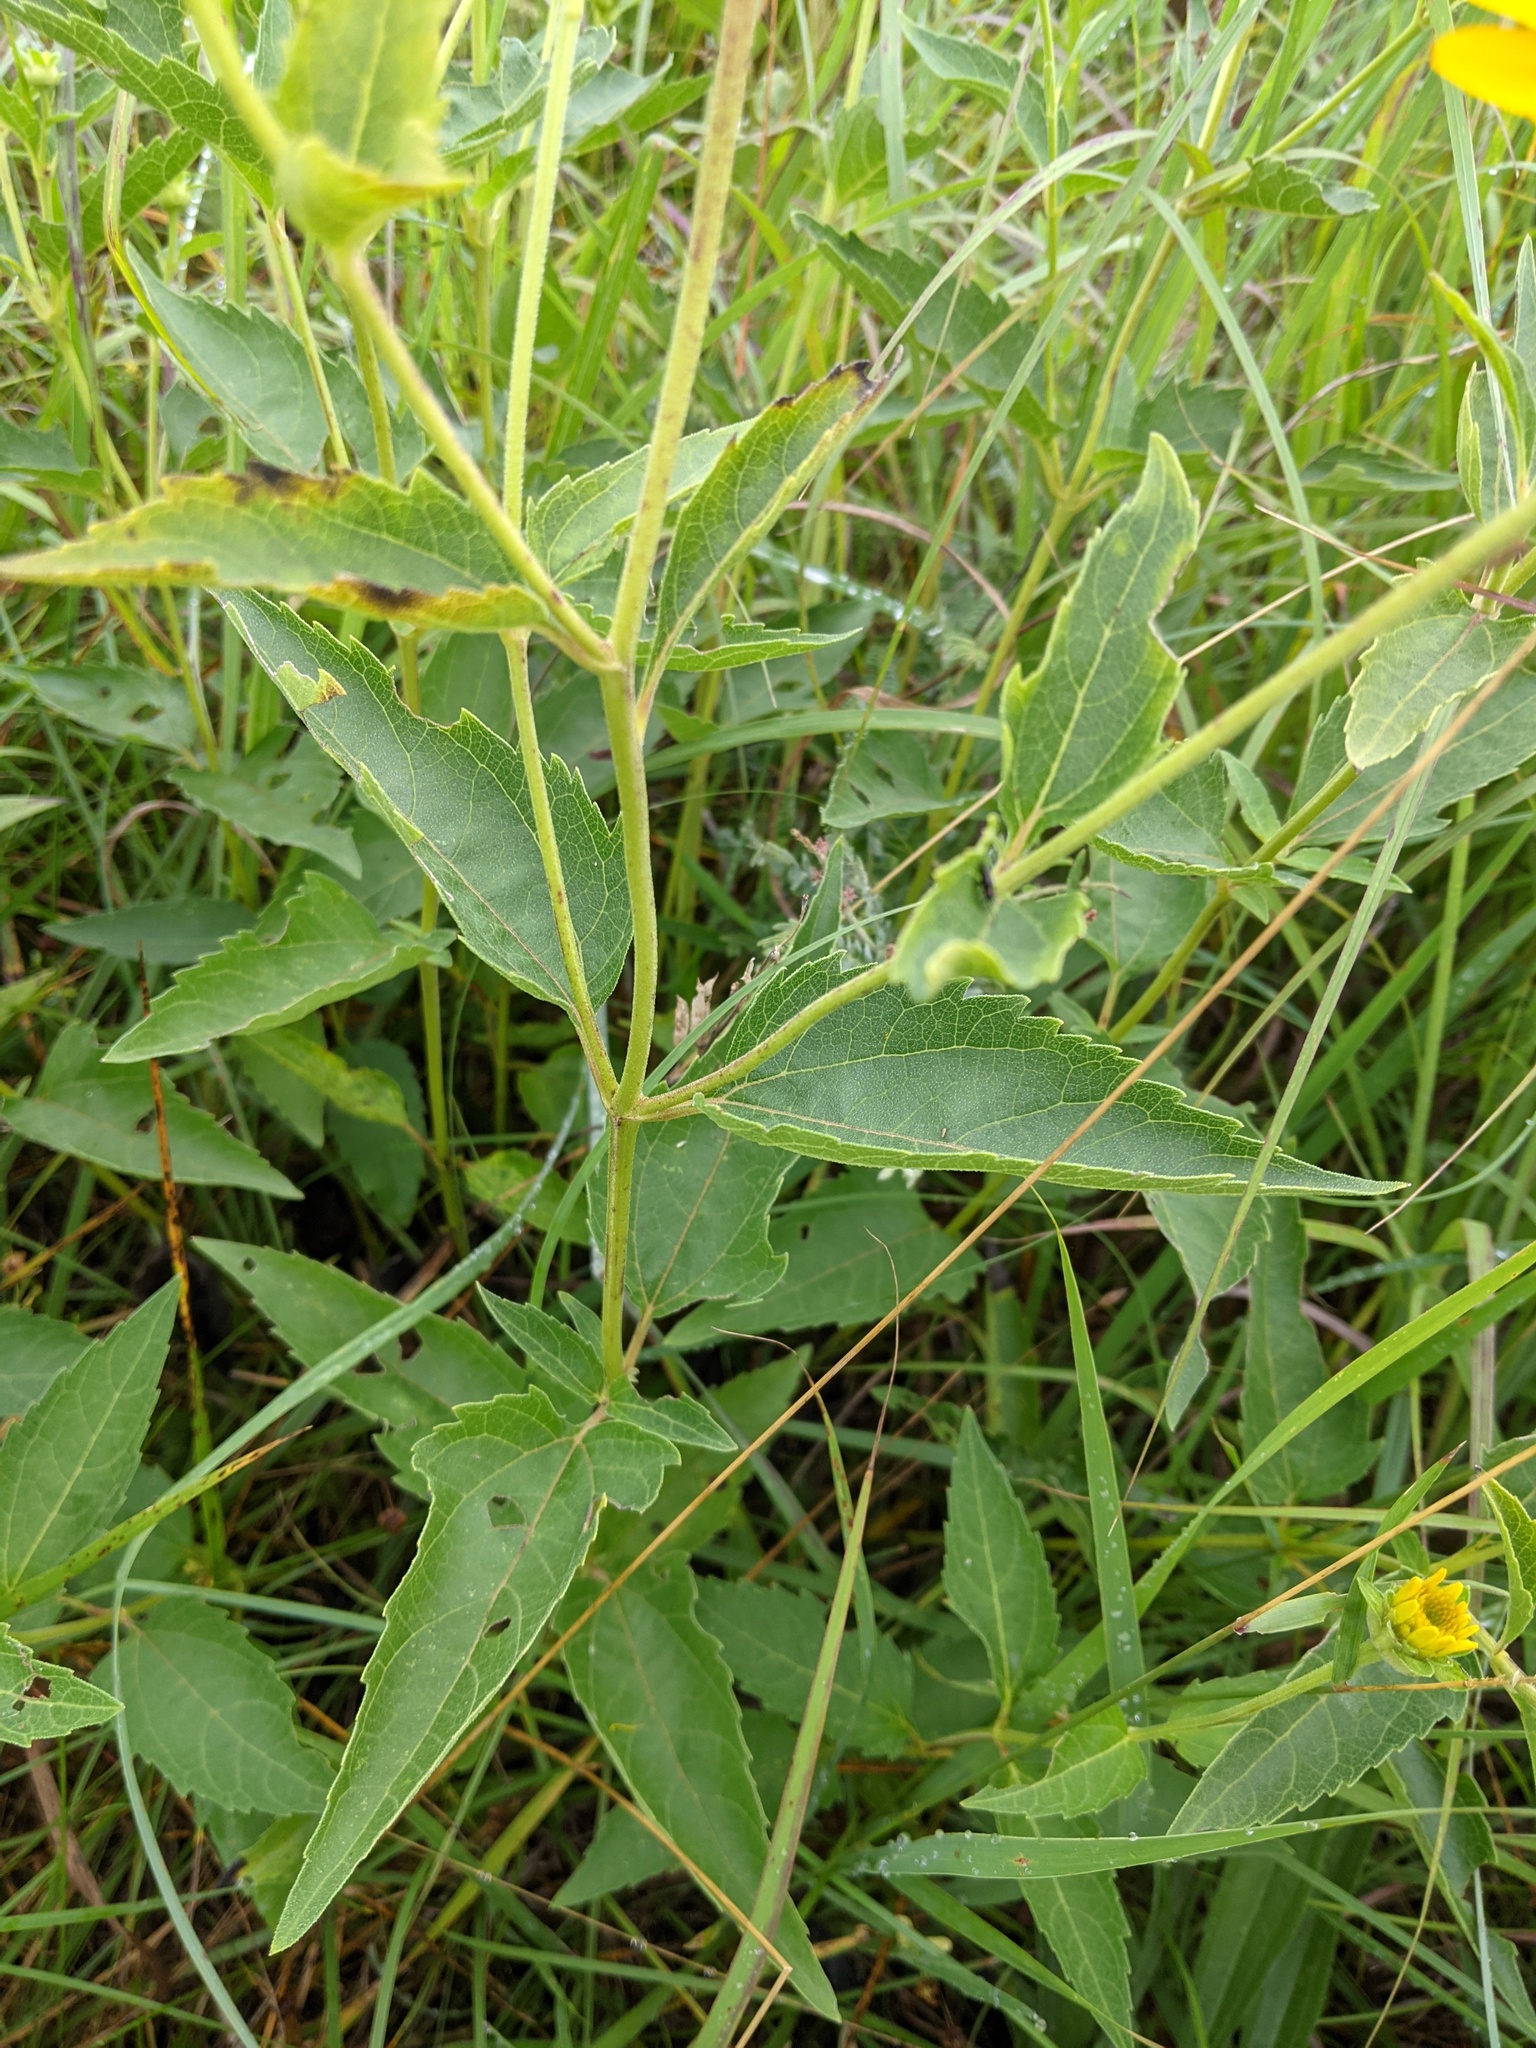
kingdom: Plantae
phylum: Tracheophyta
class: Magnoliopsida
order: Asterales
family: Asteraceae
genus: Heliopsis
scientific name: Heliopsis helianthoides
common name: False sunflower
